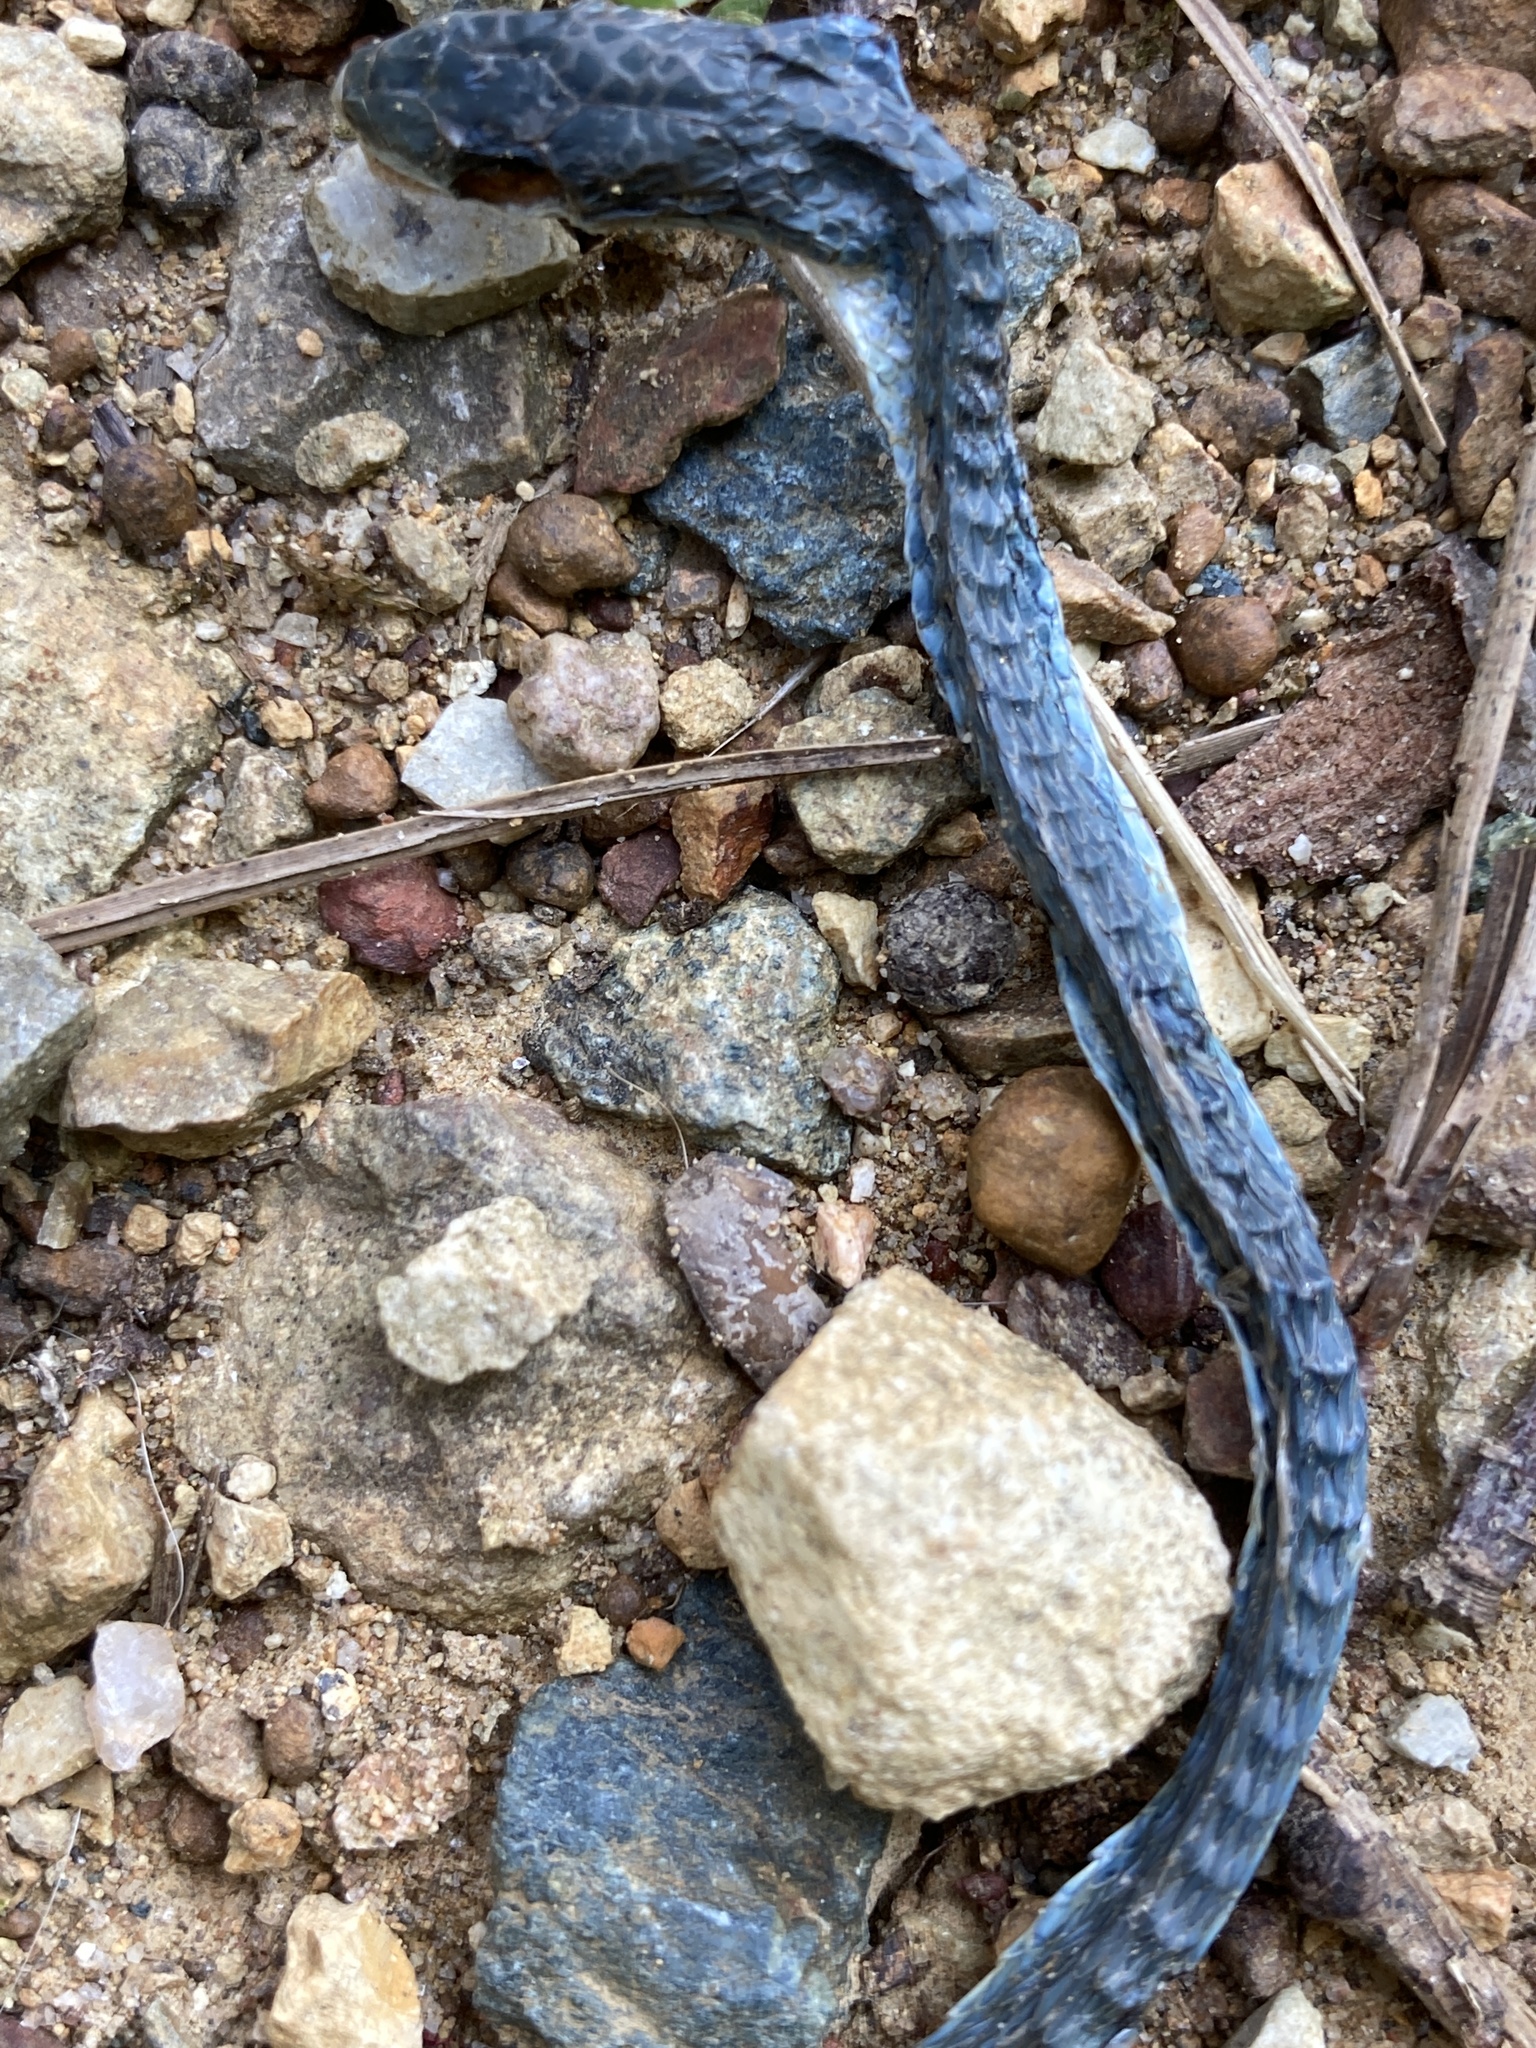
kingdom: Animalia
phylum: Chordata
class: Squamata
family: Colubridae
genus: Opheodrys
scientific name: Opheodrys aestivus
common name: Rough greensnake
